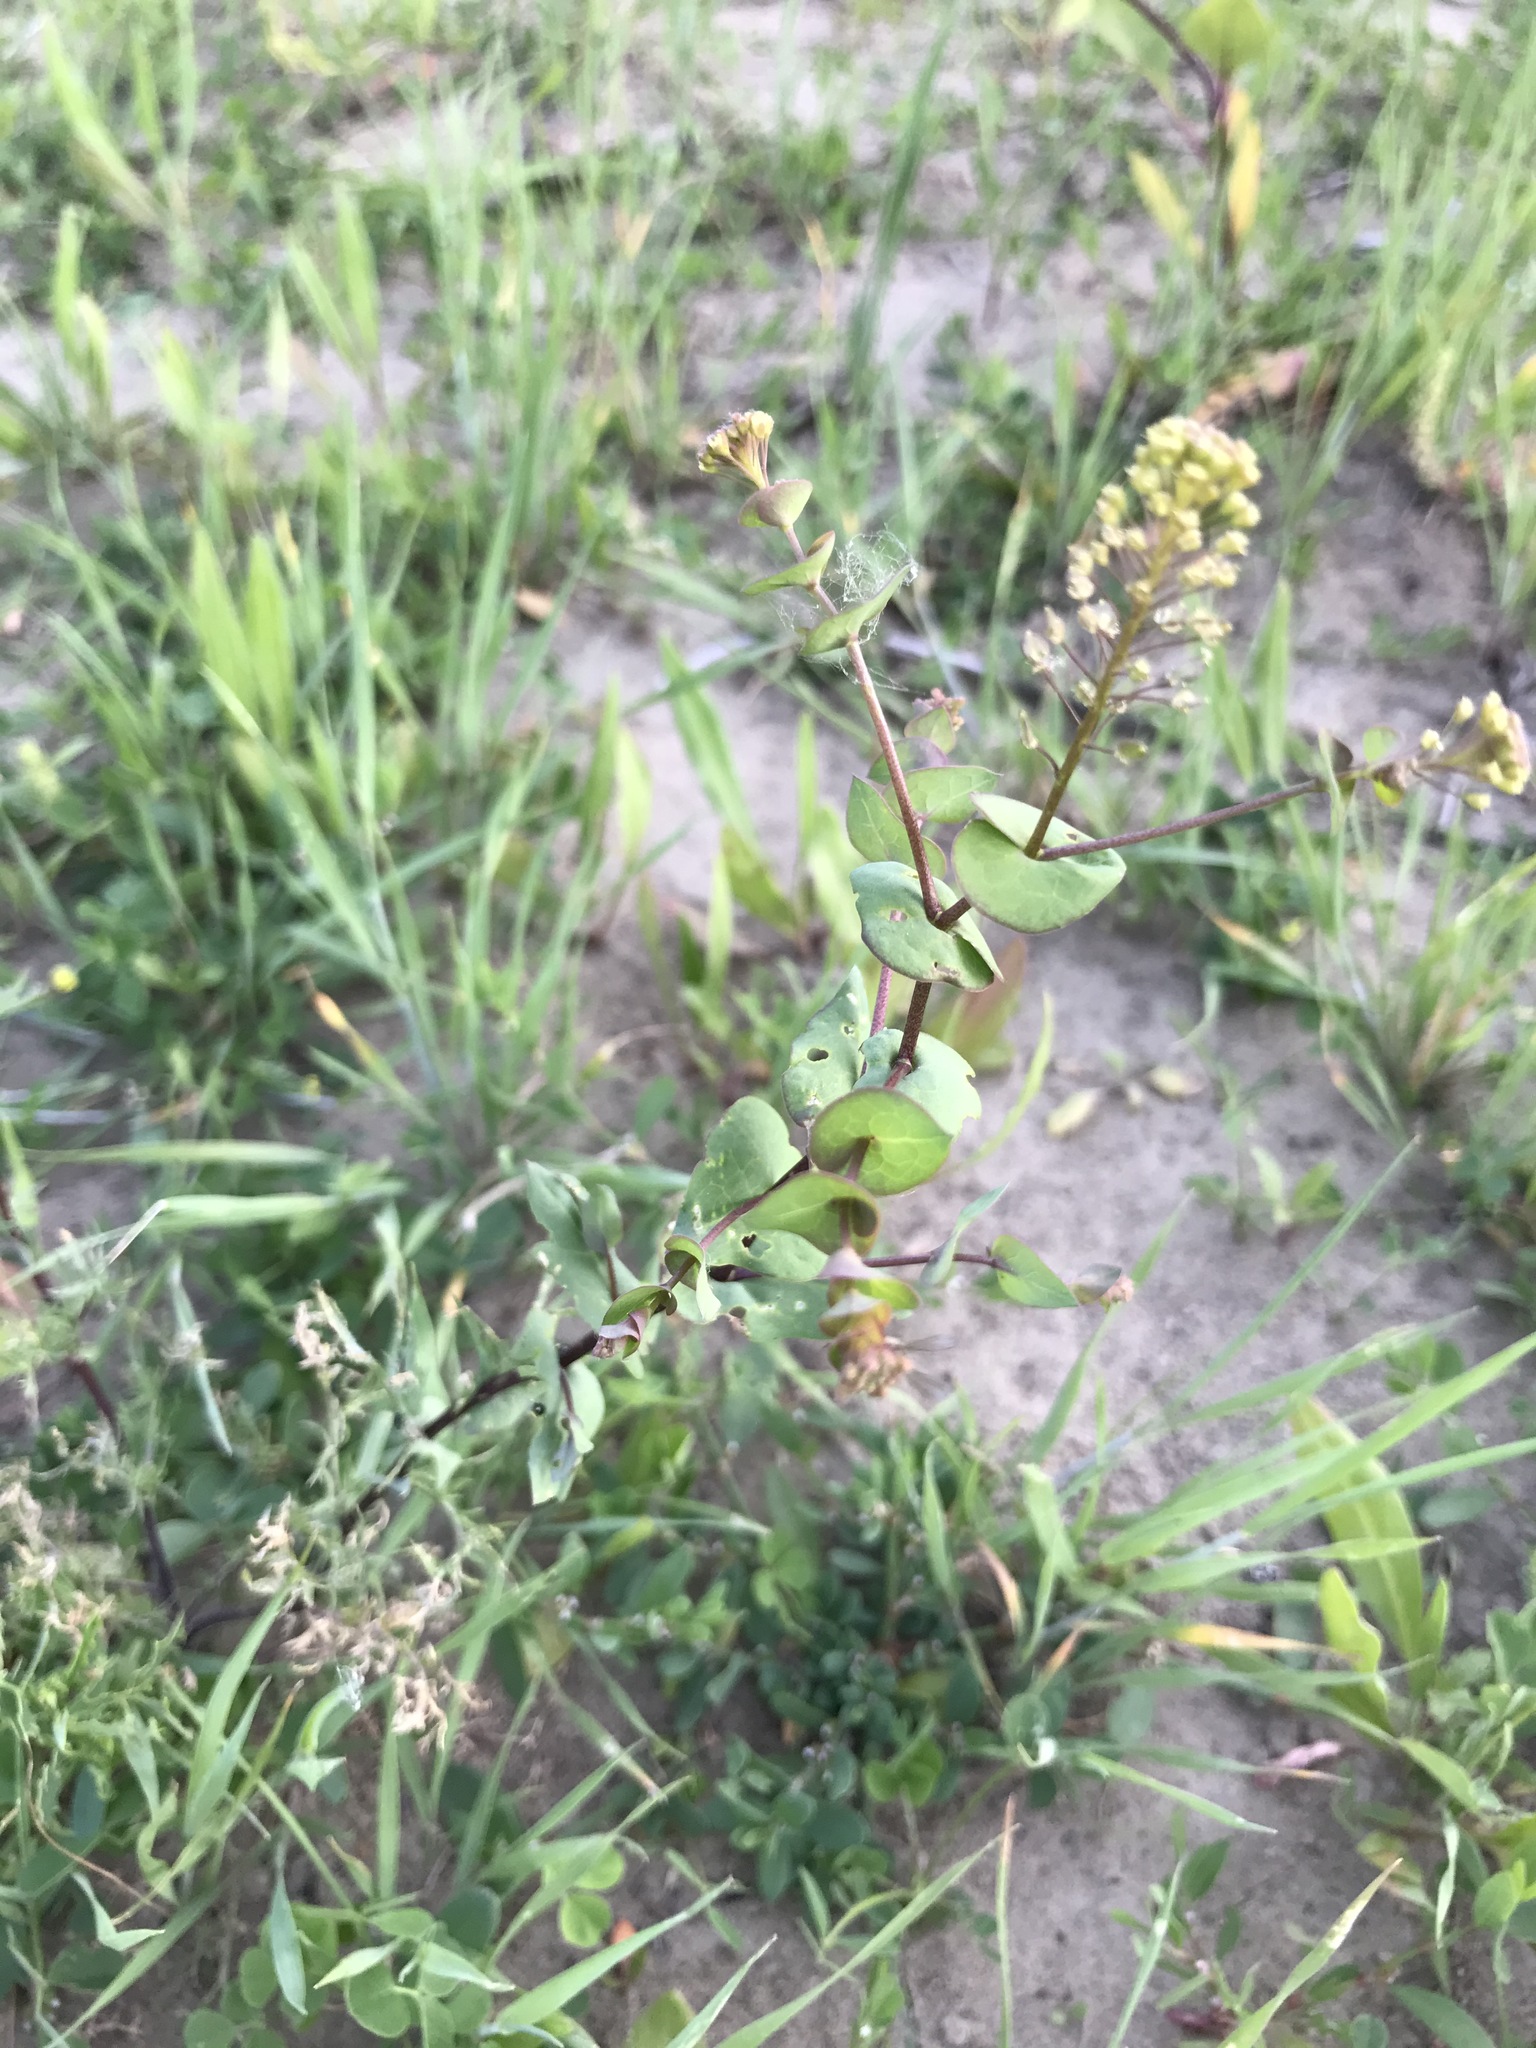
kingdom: Plantae
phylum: Tracheophyta
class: Magnoliopsida
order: Brassicales
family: Brassicaceae
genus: Lepidium
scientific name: Lepidium perfoliatum
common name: Perfoliate pepperwort
